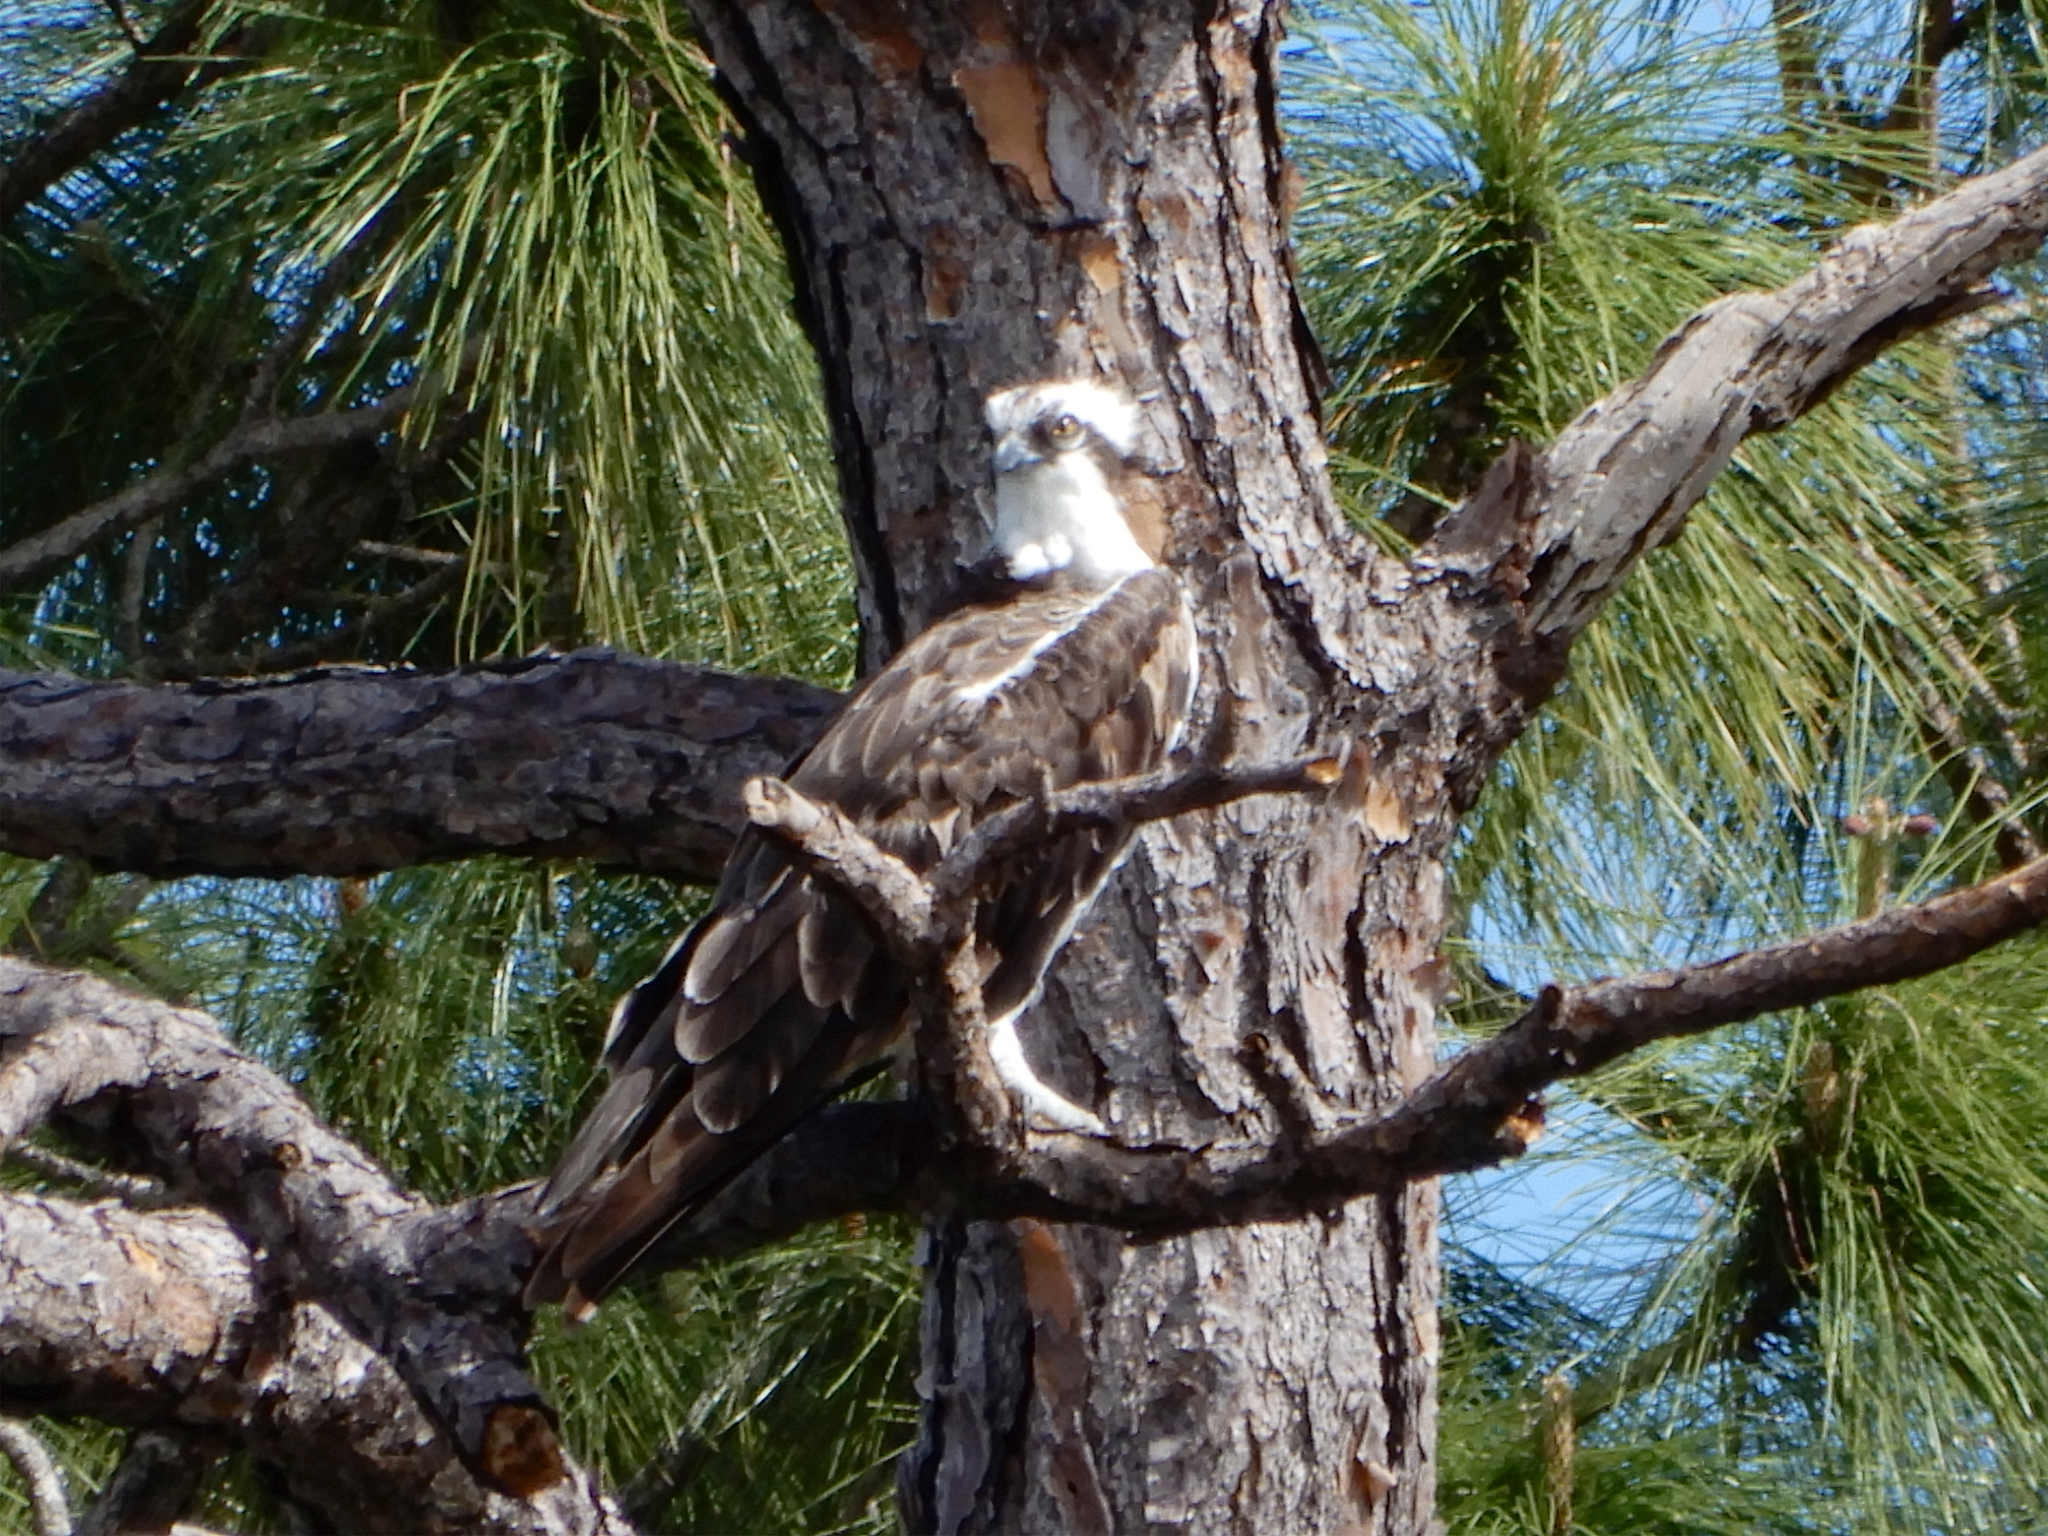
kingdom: Animalia
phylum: Chordata
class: Aves
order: Accipitriformes
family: Pandionidae
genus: Pandion
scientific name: Pandion haliaetus
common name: Osprey
